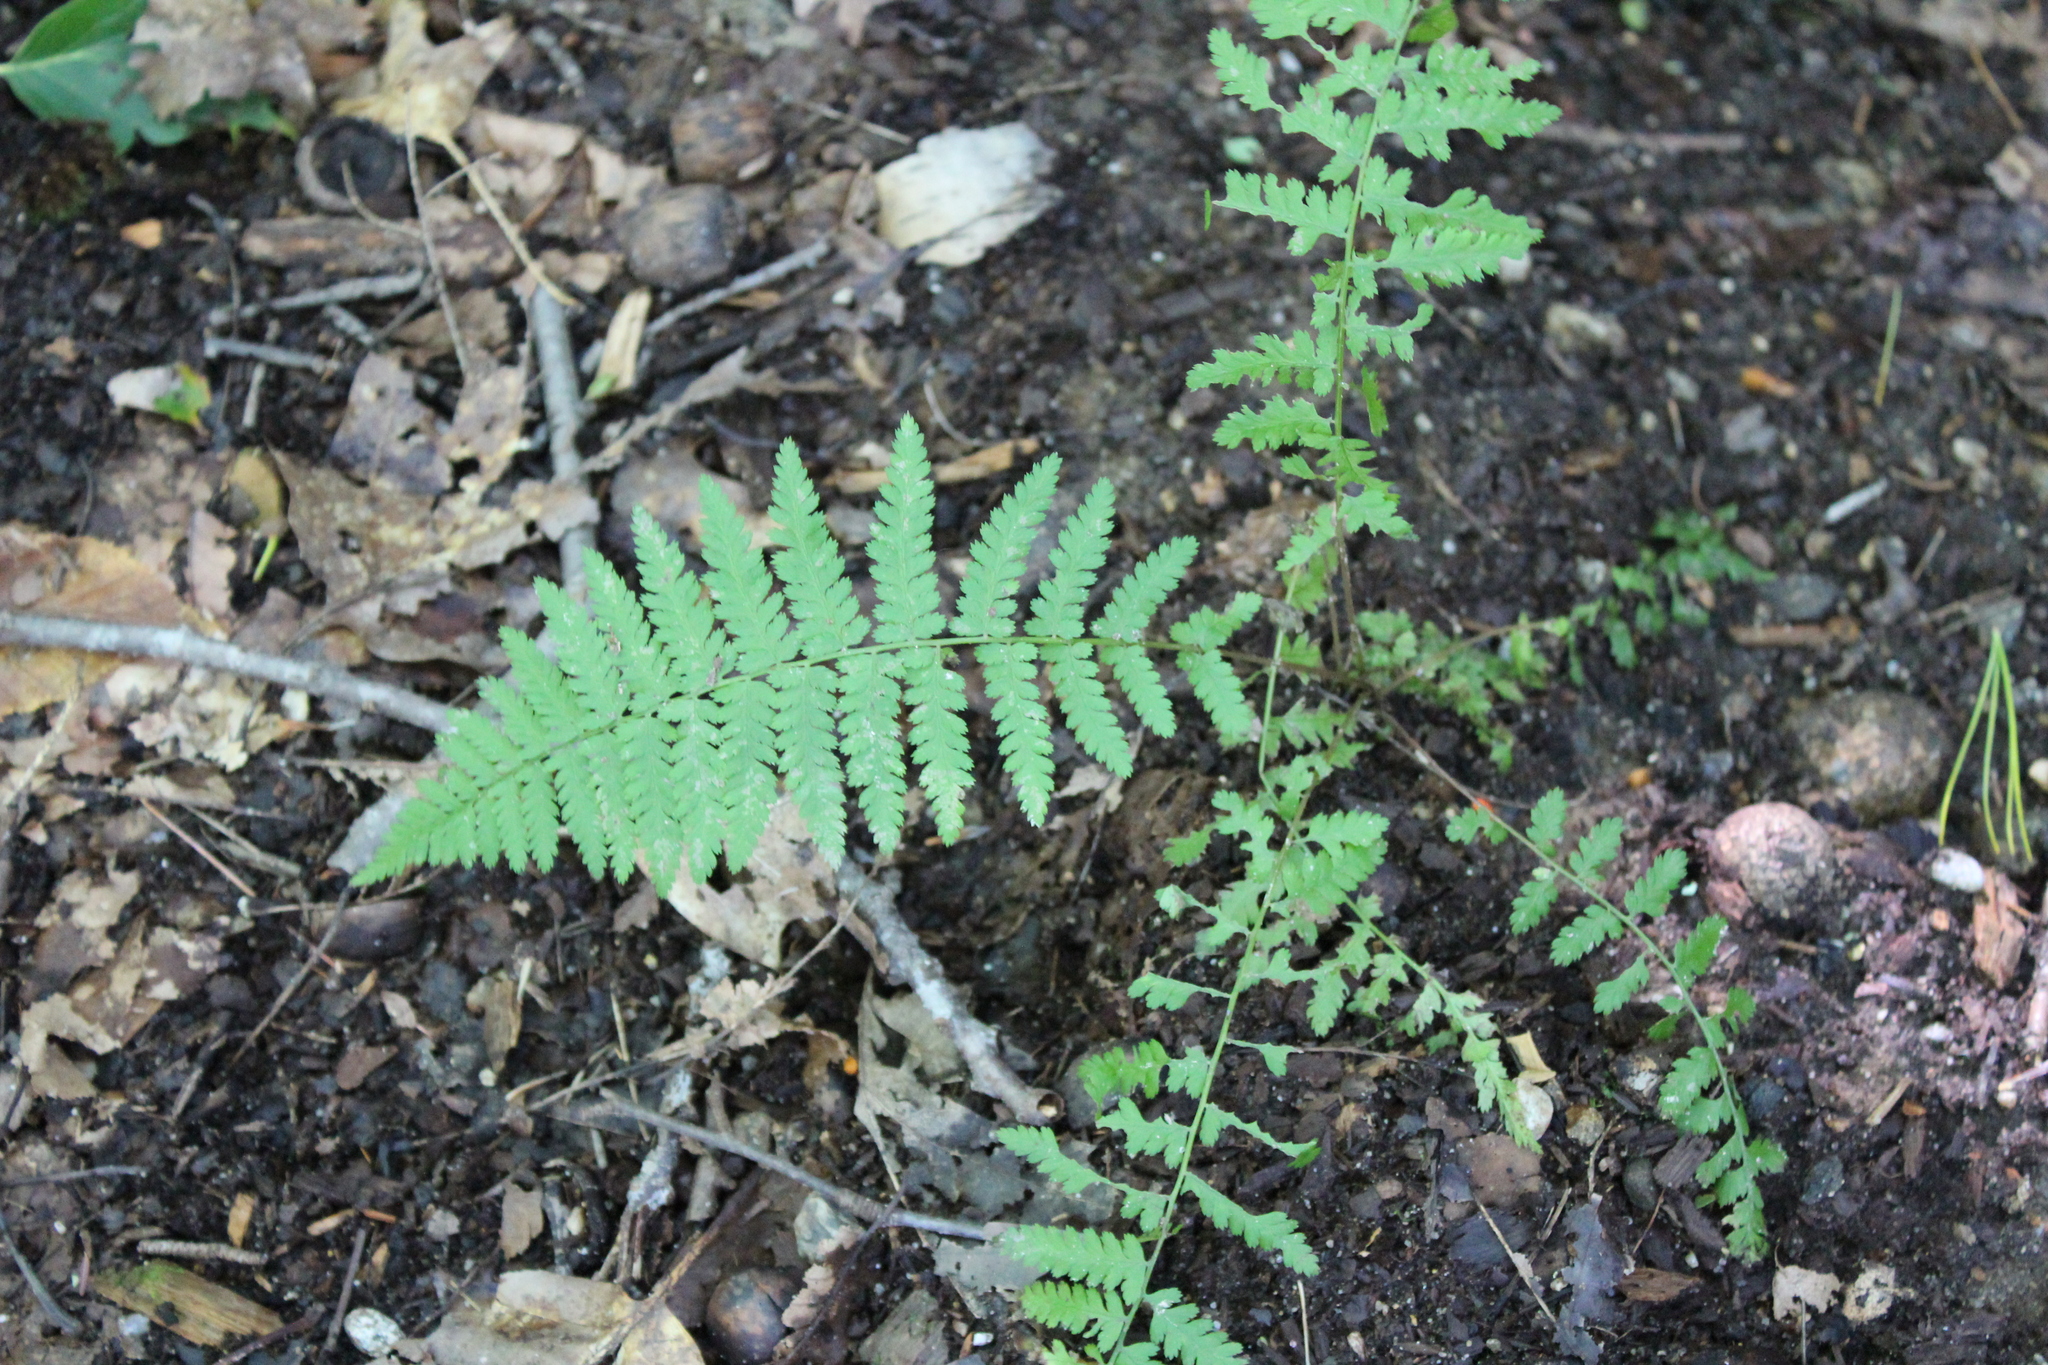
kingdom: Plantae
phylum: Tracheophyta
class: Polypodiopsida
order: Polypodiales
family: Athyriaceae
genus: Athyrium
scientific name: Athyrium angustum
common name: Northern lady fern
